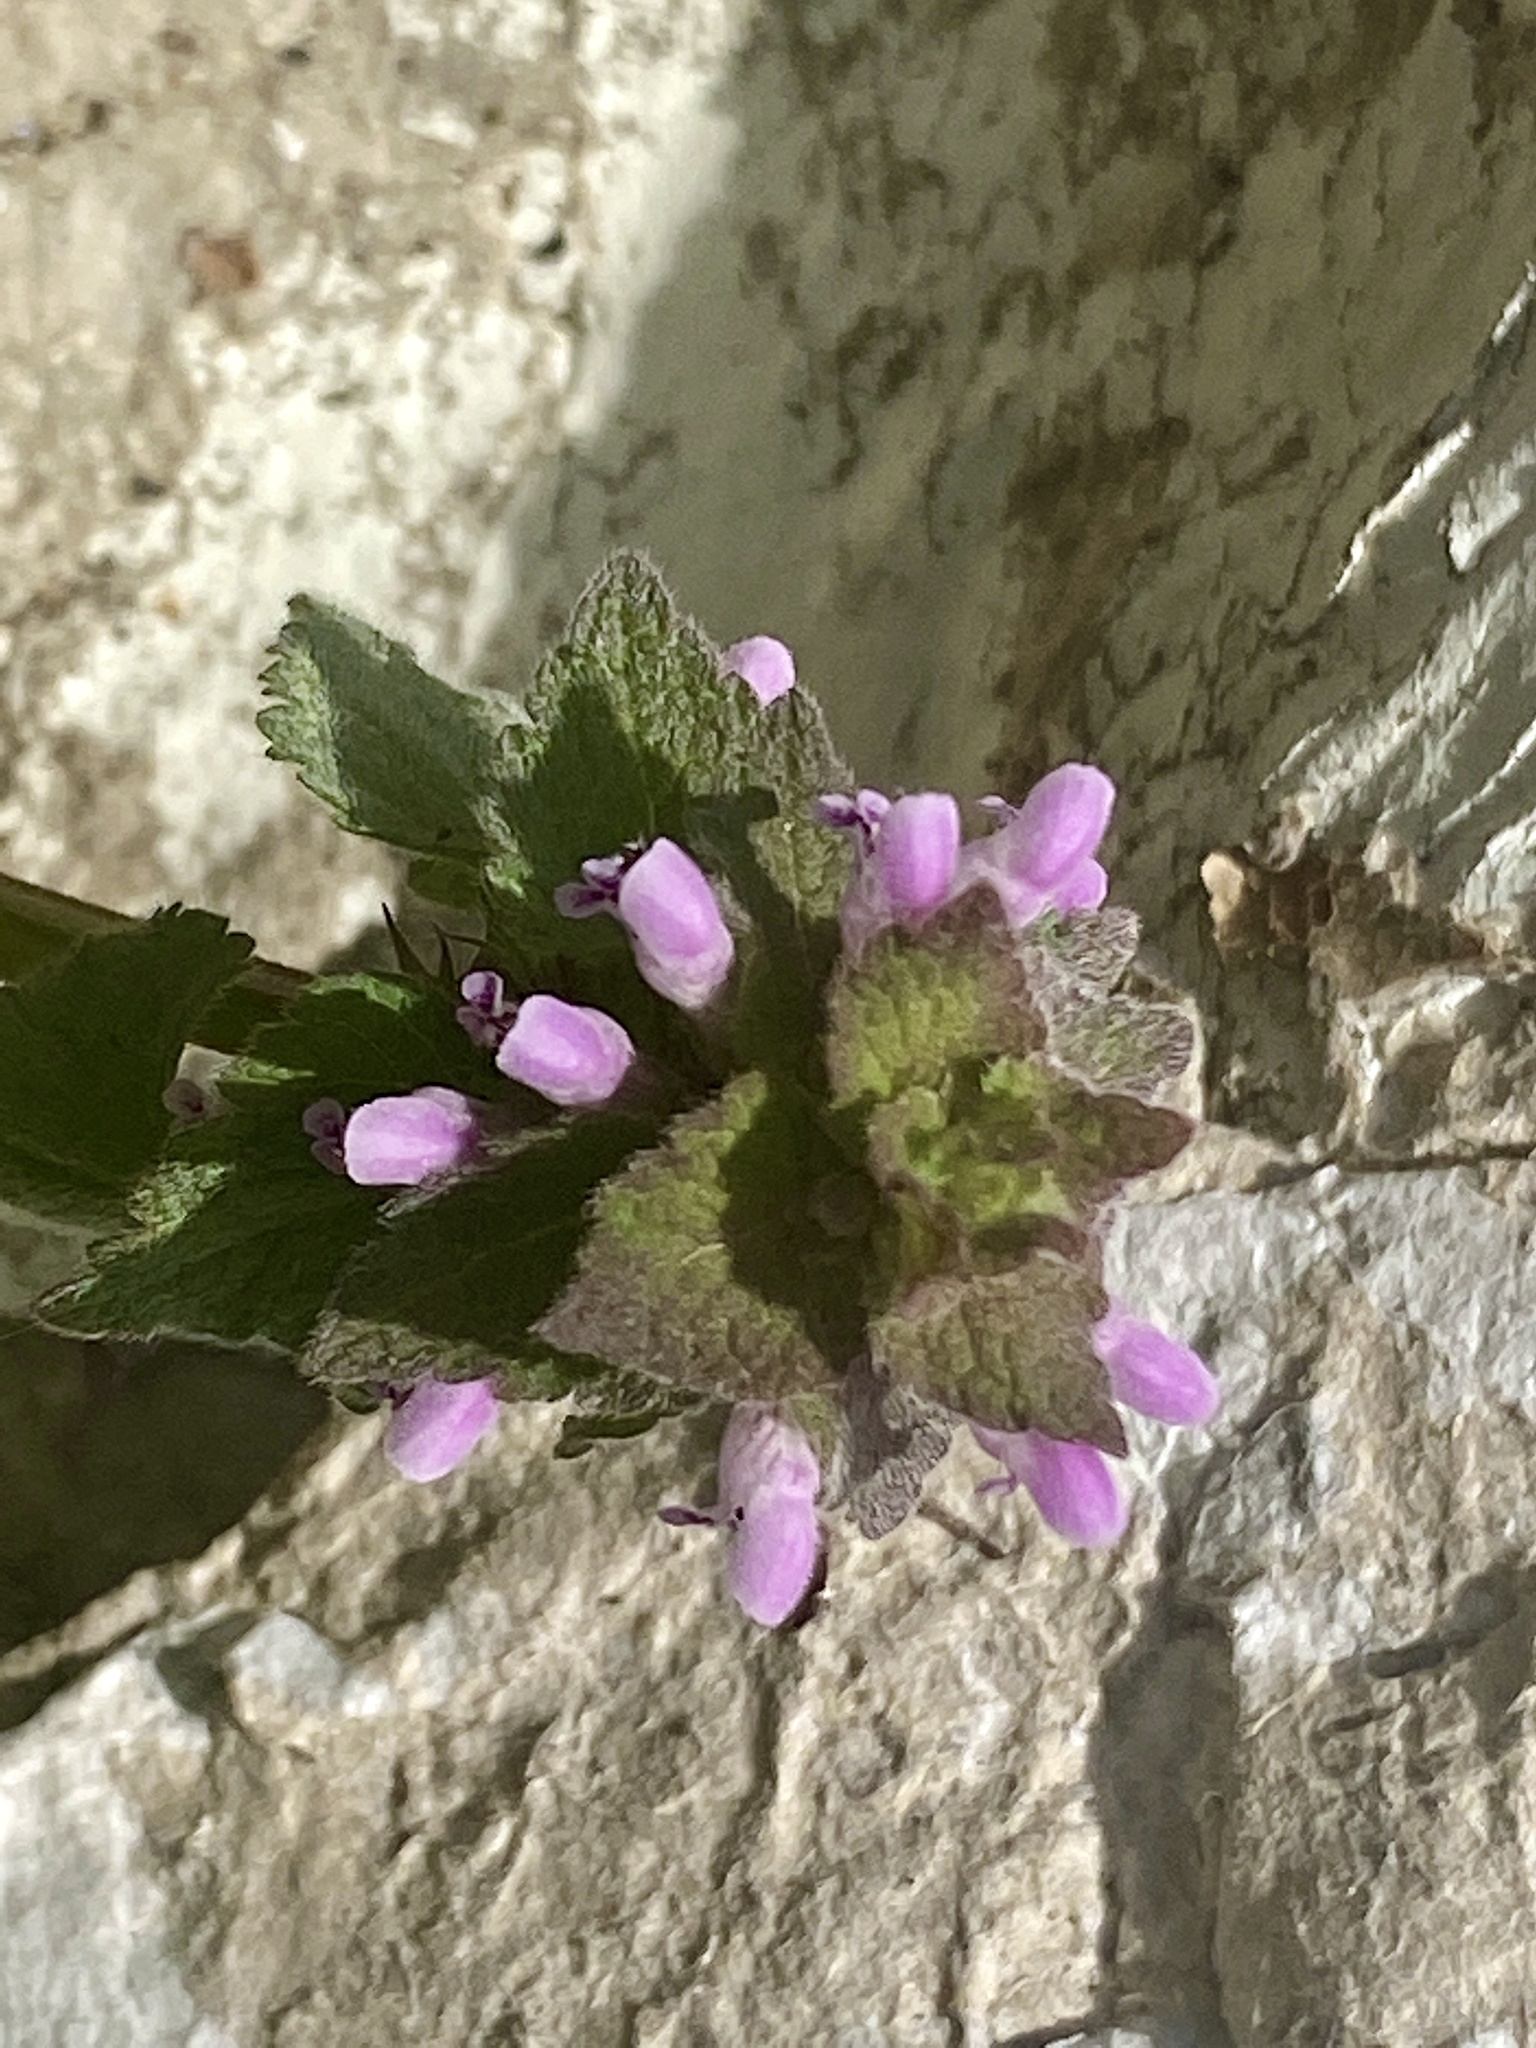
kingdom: Plantae
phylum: Tracheophyta
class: Magnoliopsida
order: Lamiales
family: Lamiaceae
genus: Lamium
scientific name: Lamium purpureum
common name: Red dead-nettle
